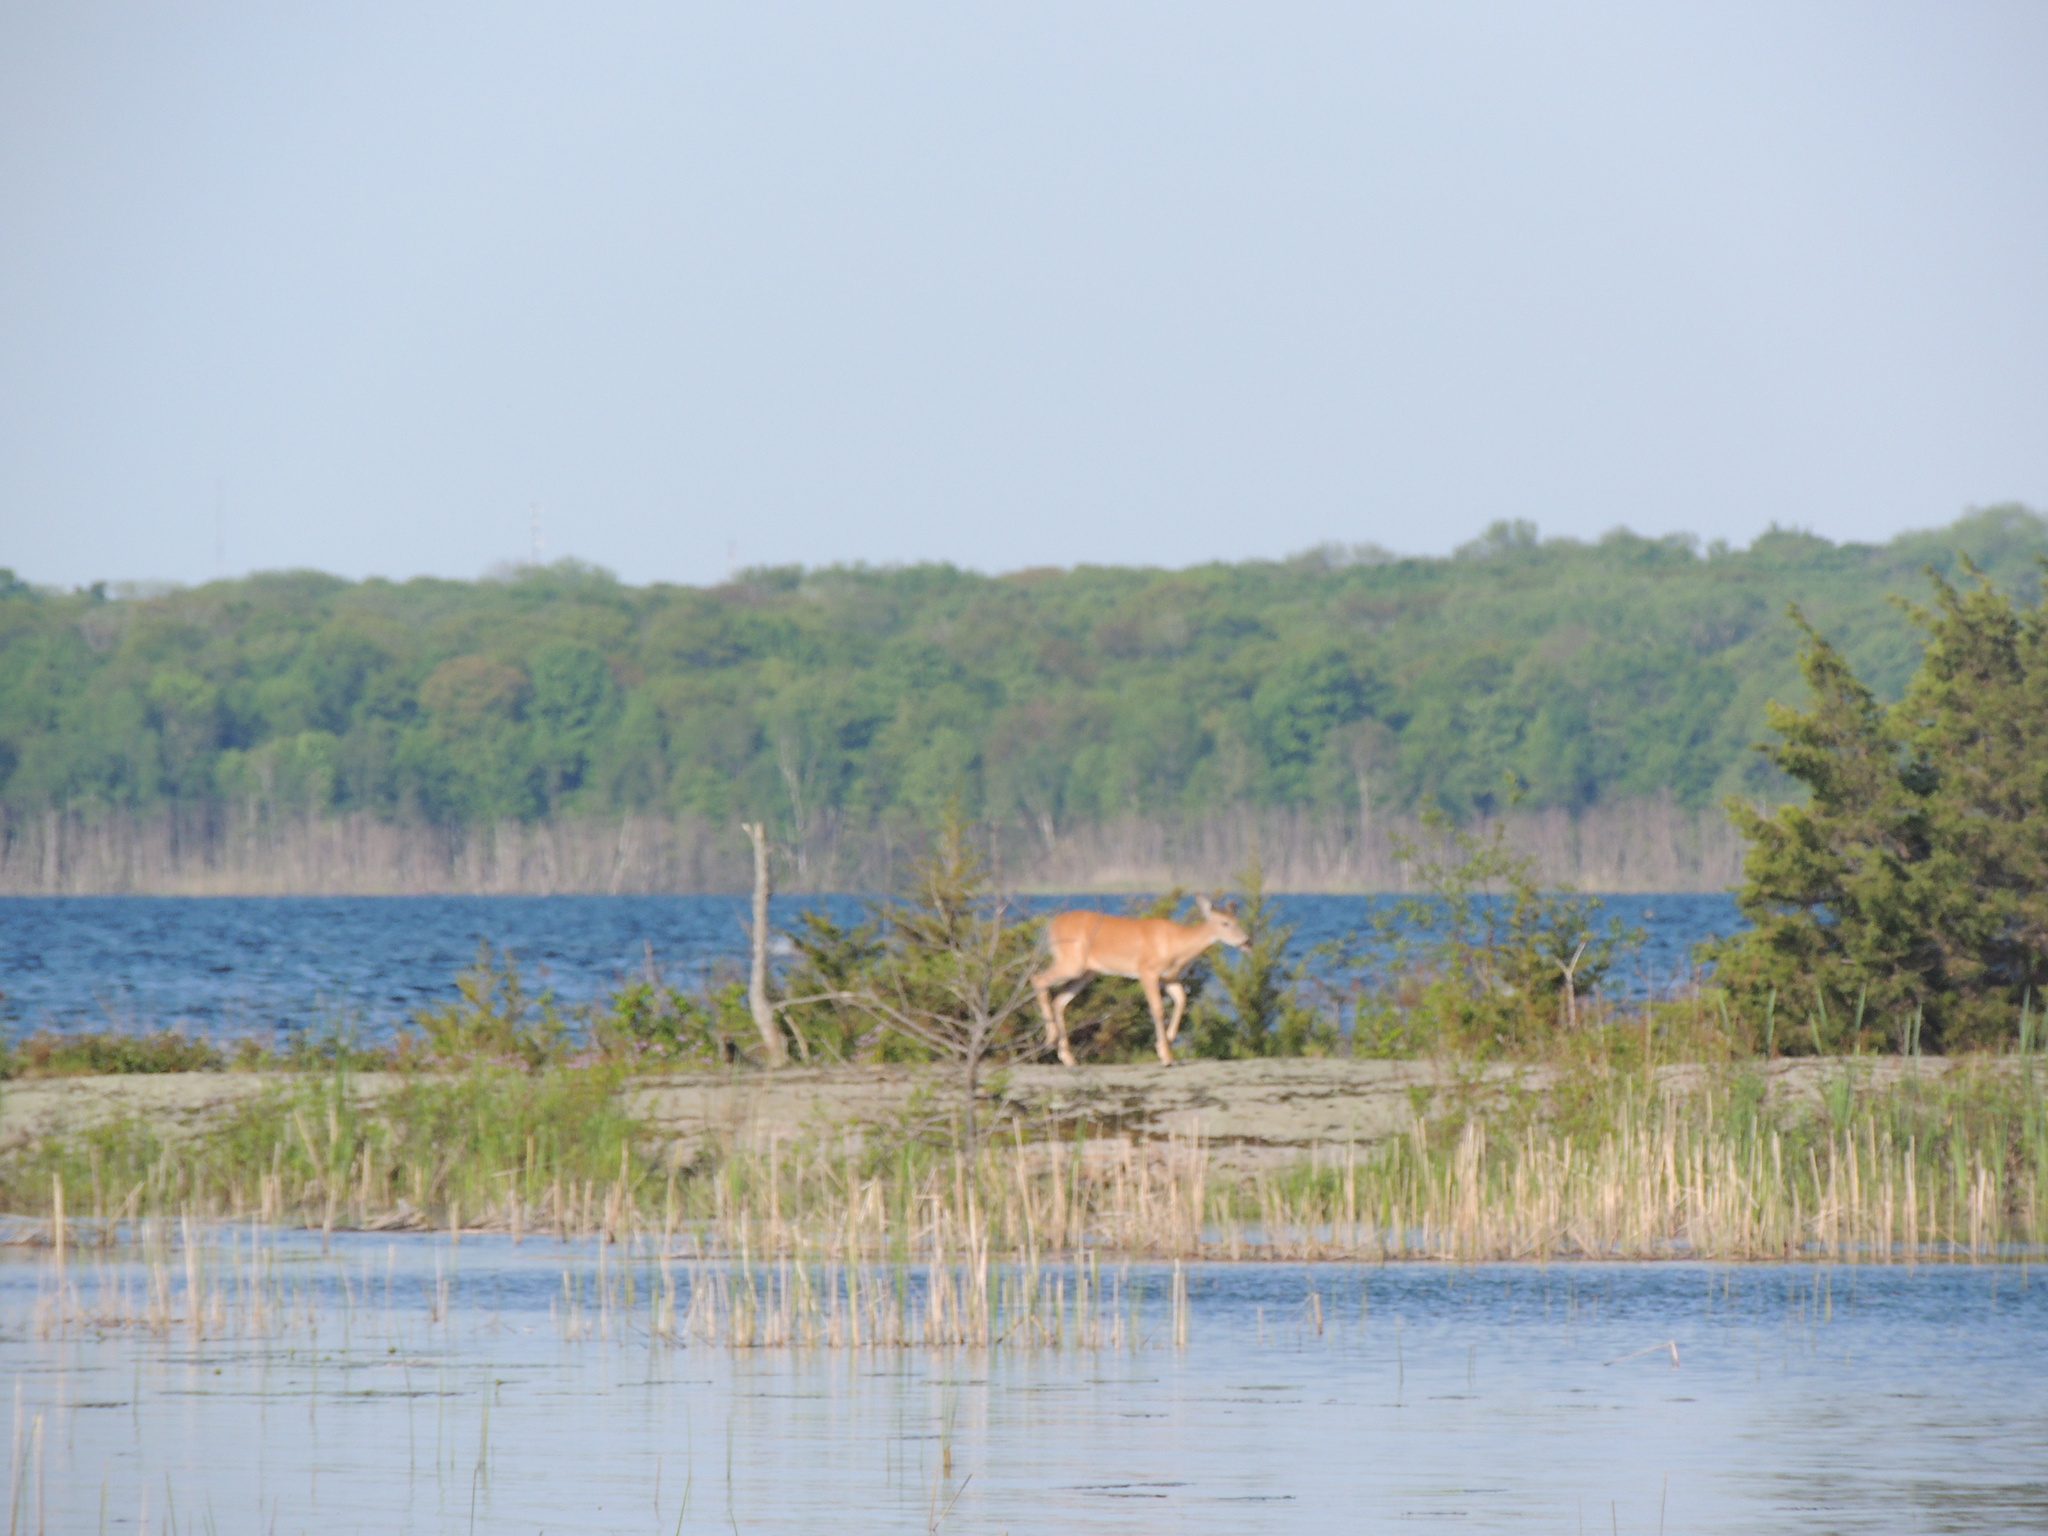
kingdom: Animalia
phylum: Chordata
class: Mammalia
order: Artiodactyla
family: Cervidae
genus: Odocoileus
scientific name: Odocoileus virginianus
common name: White-tailed deer
